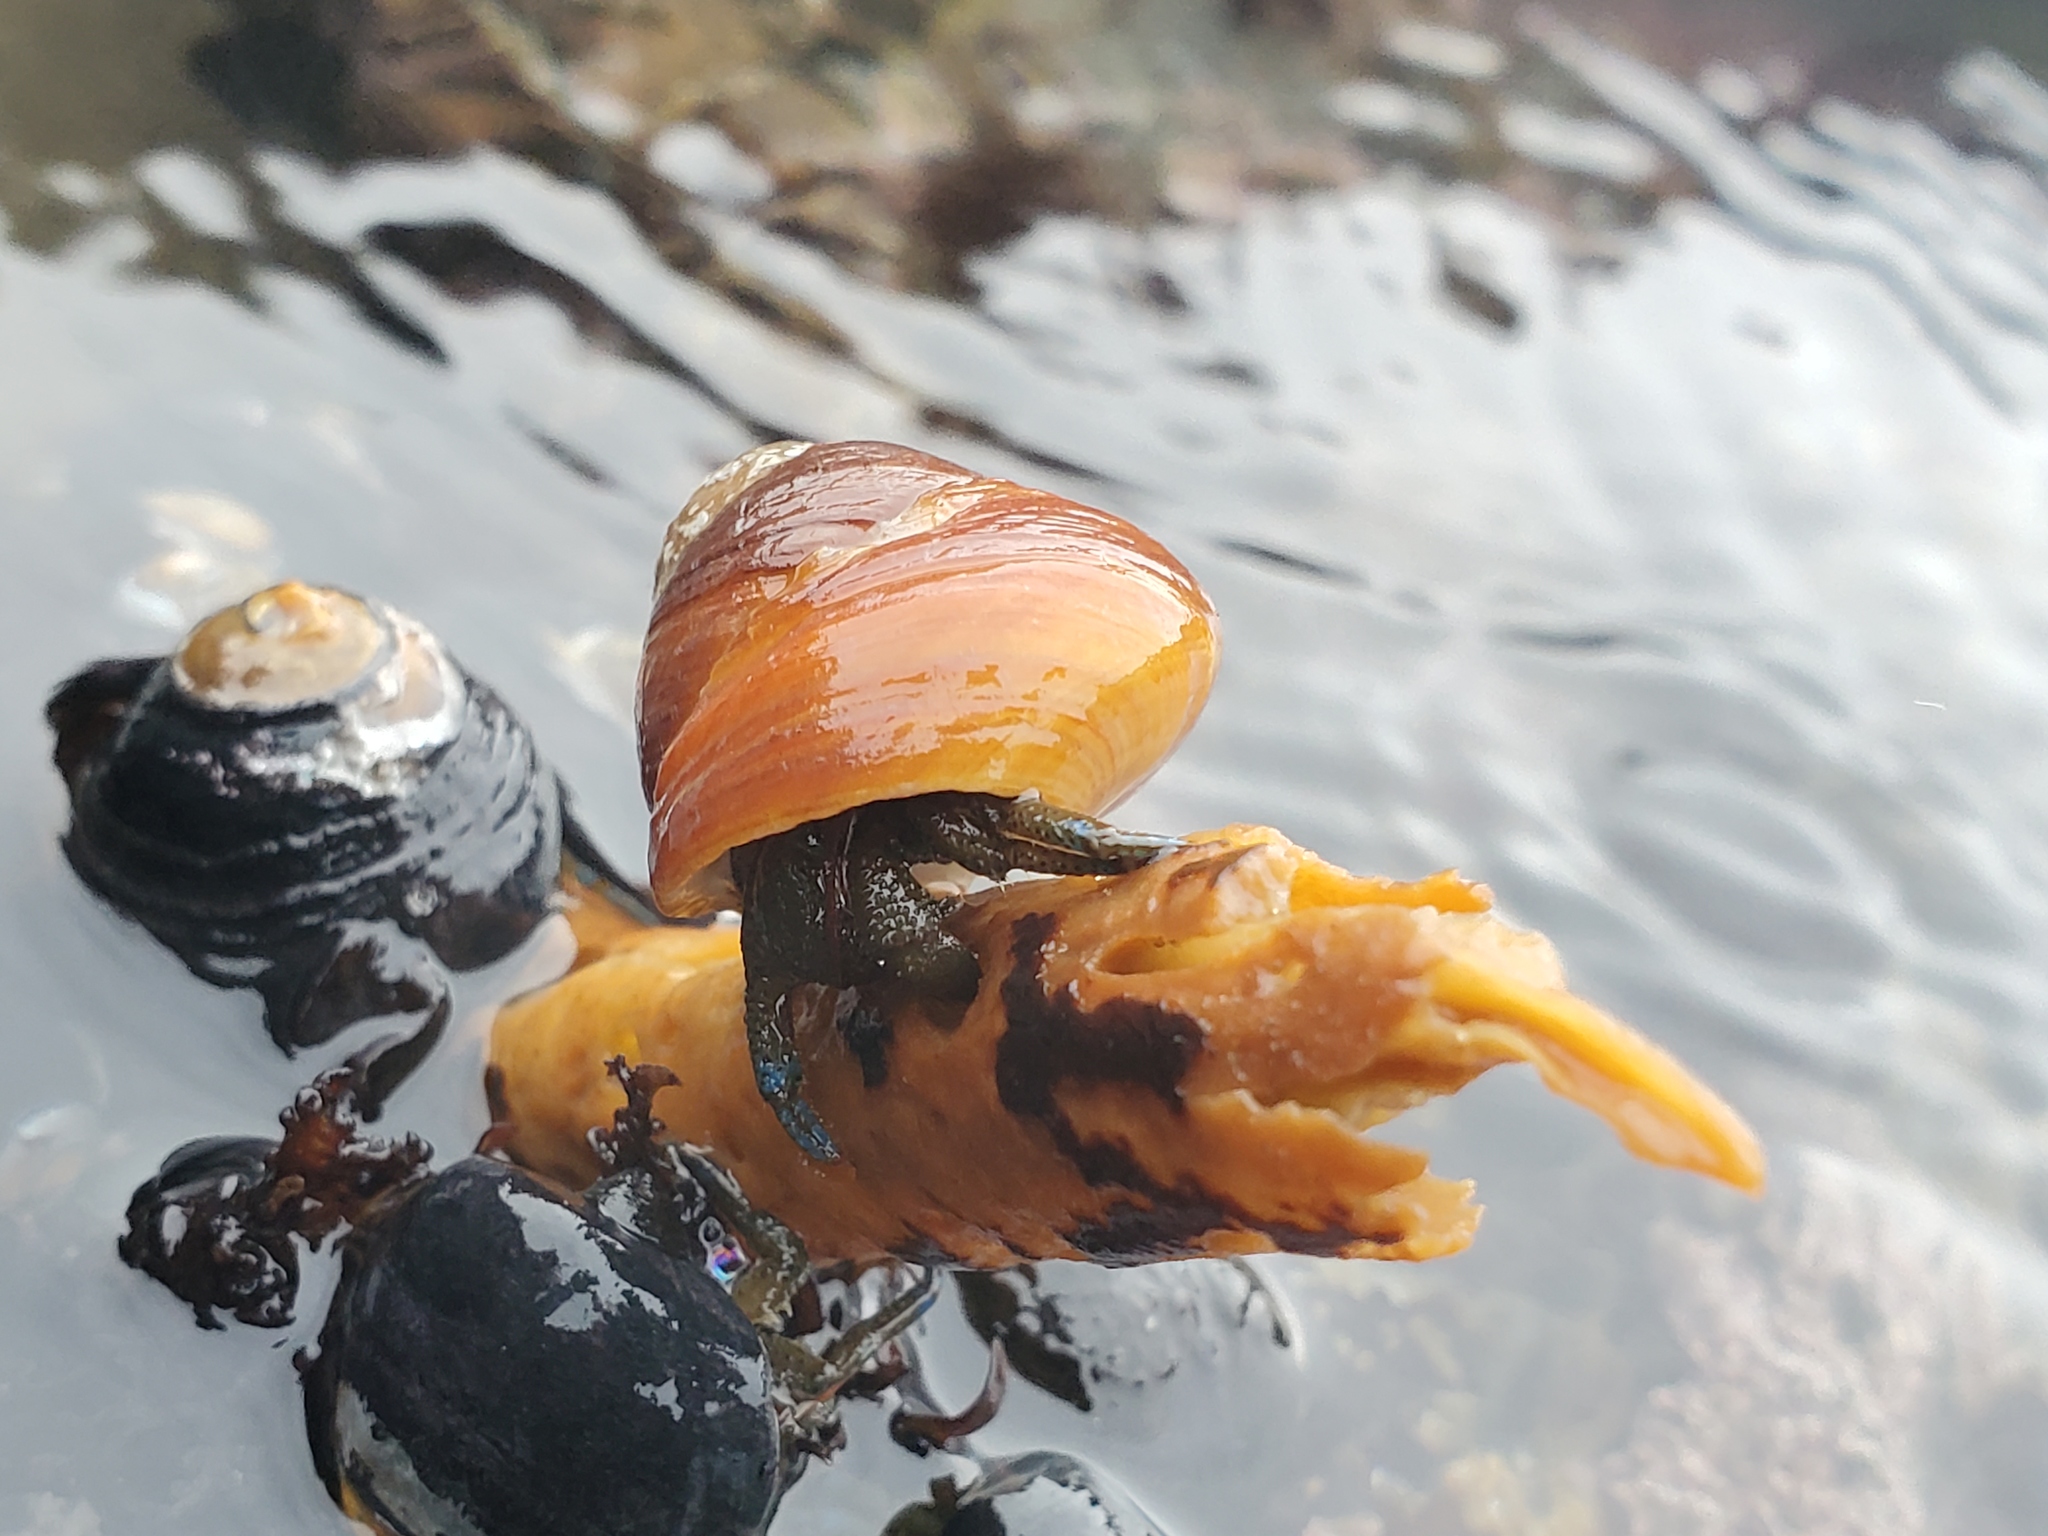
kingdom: Animalia
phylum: Arthropoda
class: Malacostraca
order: Decapoda
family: Paguridae
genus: Pagurus
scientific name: Pagurus samuelis
